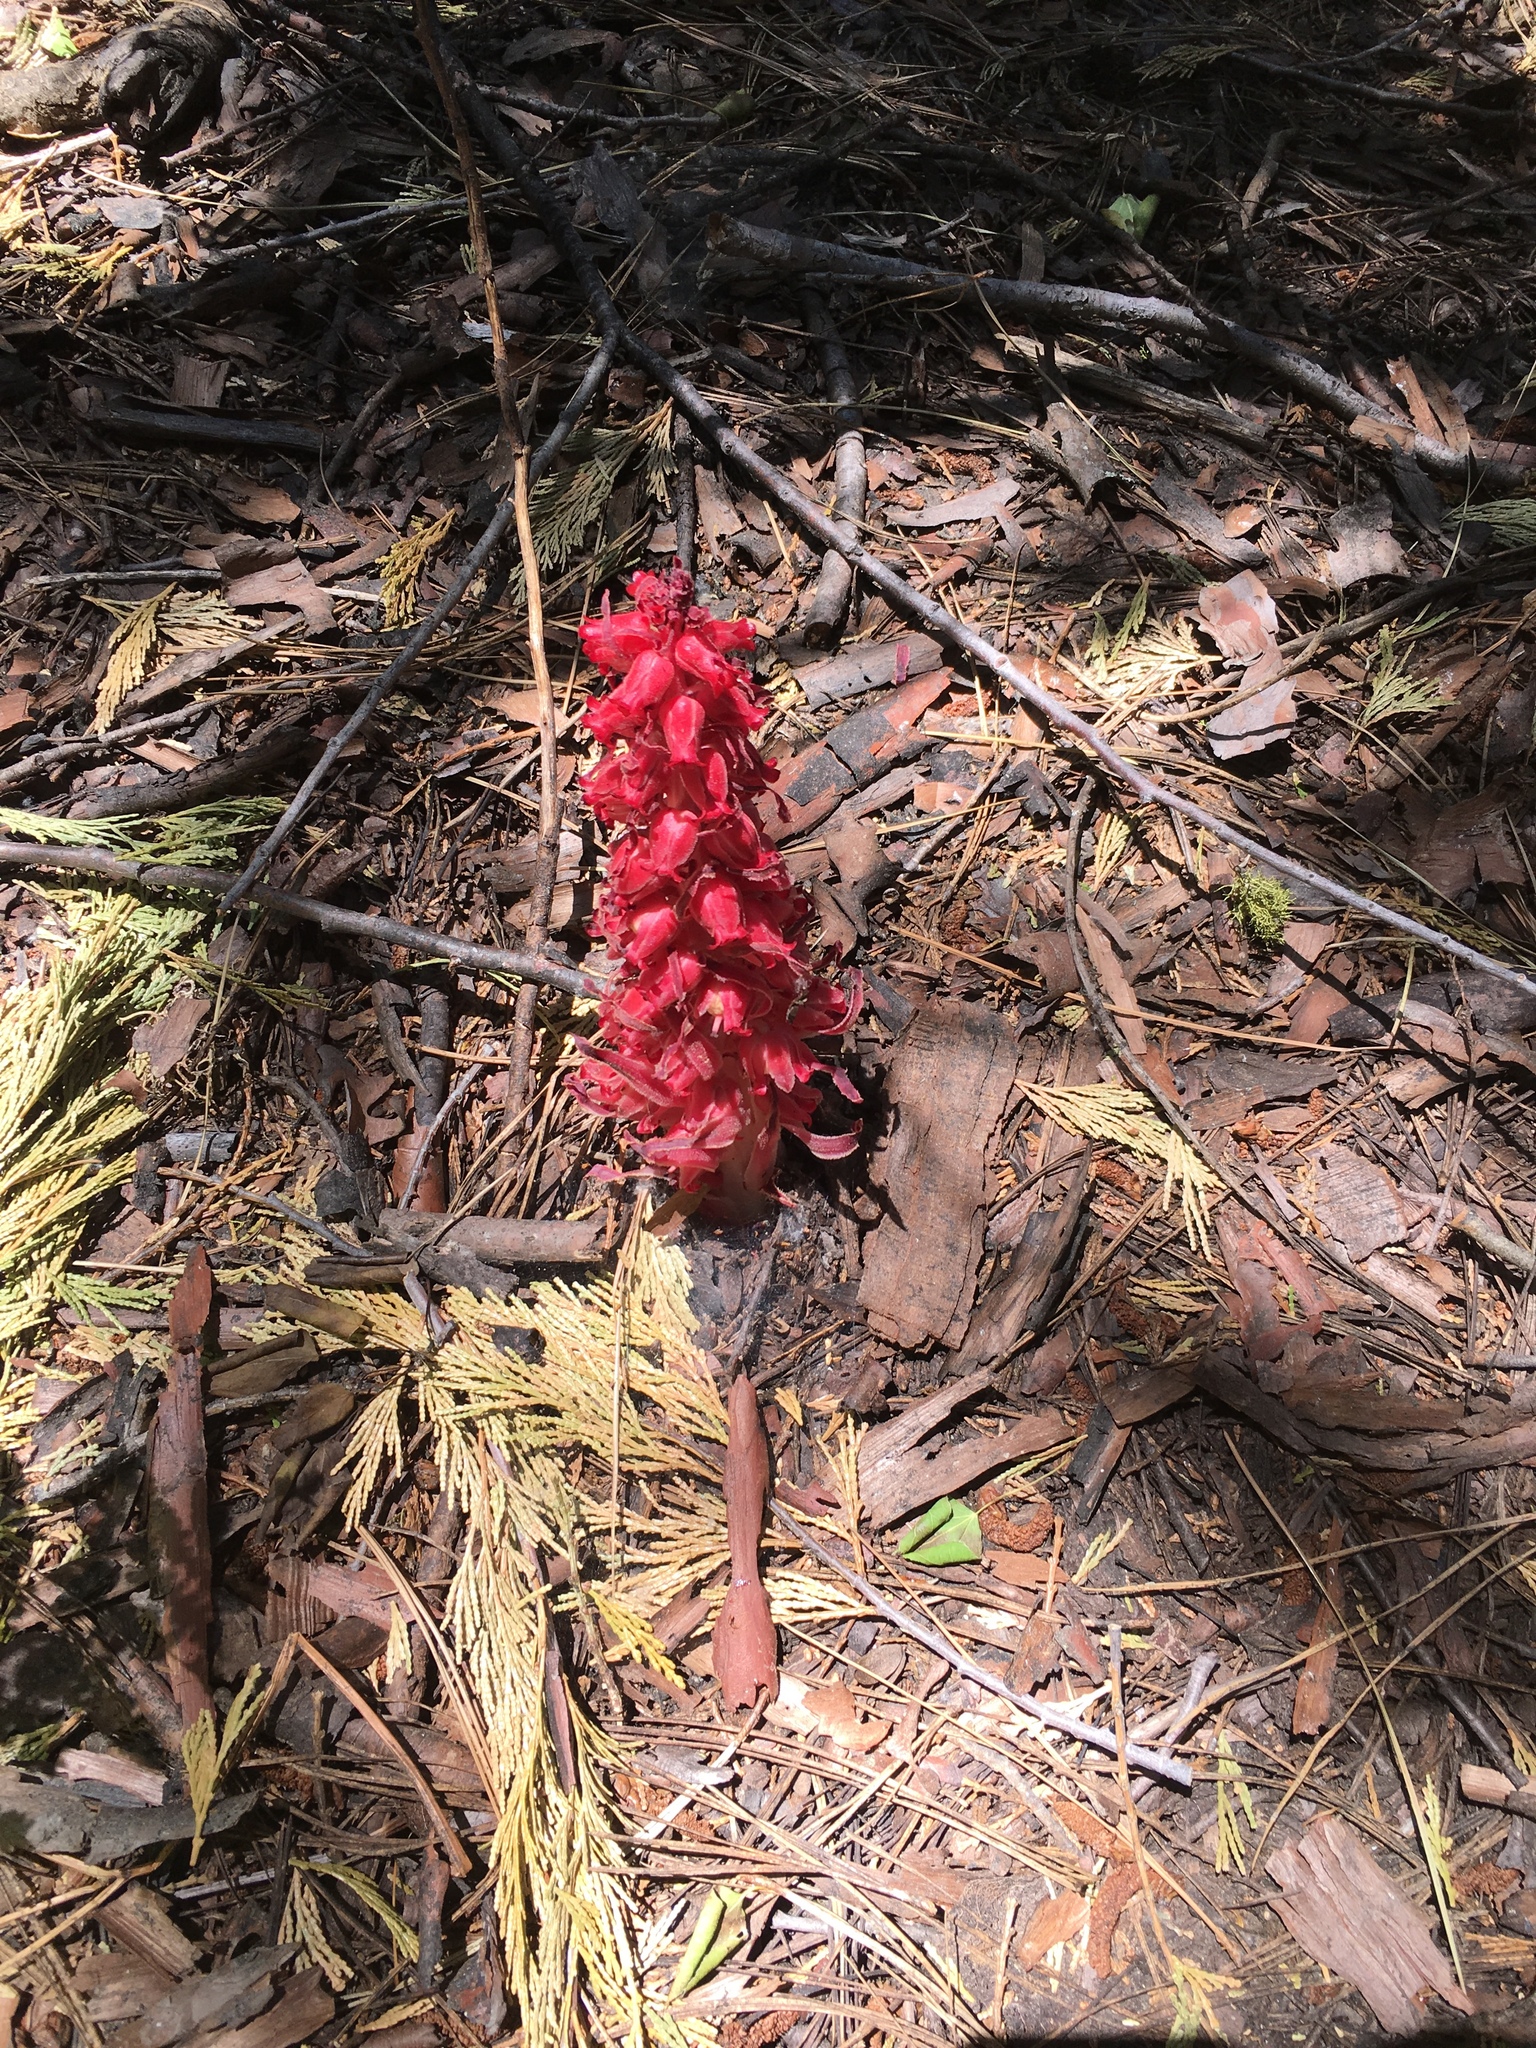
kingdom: Plantae
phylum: Tracheophyta
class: Magnoliopsida
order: Ericales
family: Ericaceae
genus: Sarcodes
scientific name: Sarcodes sanguinea
